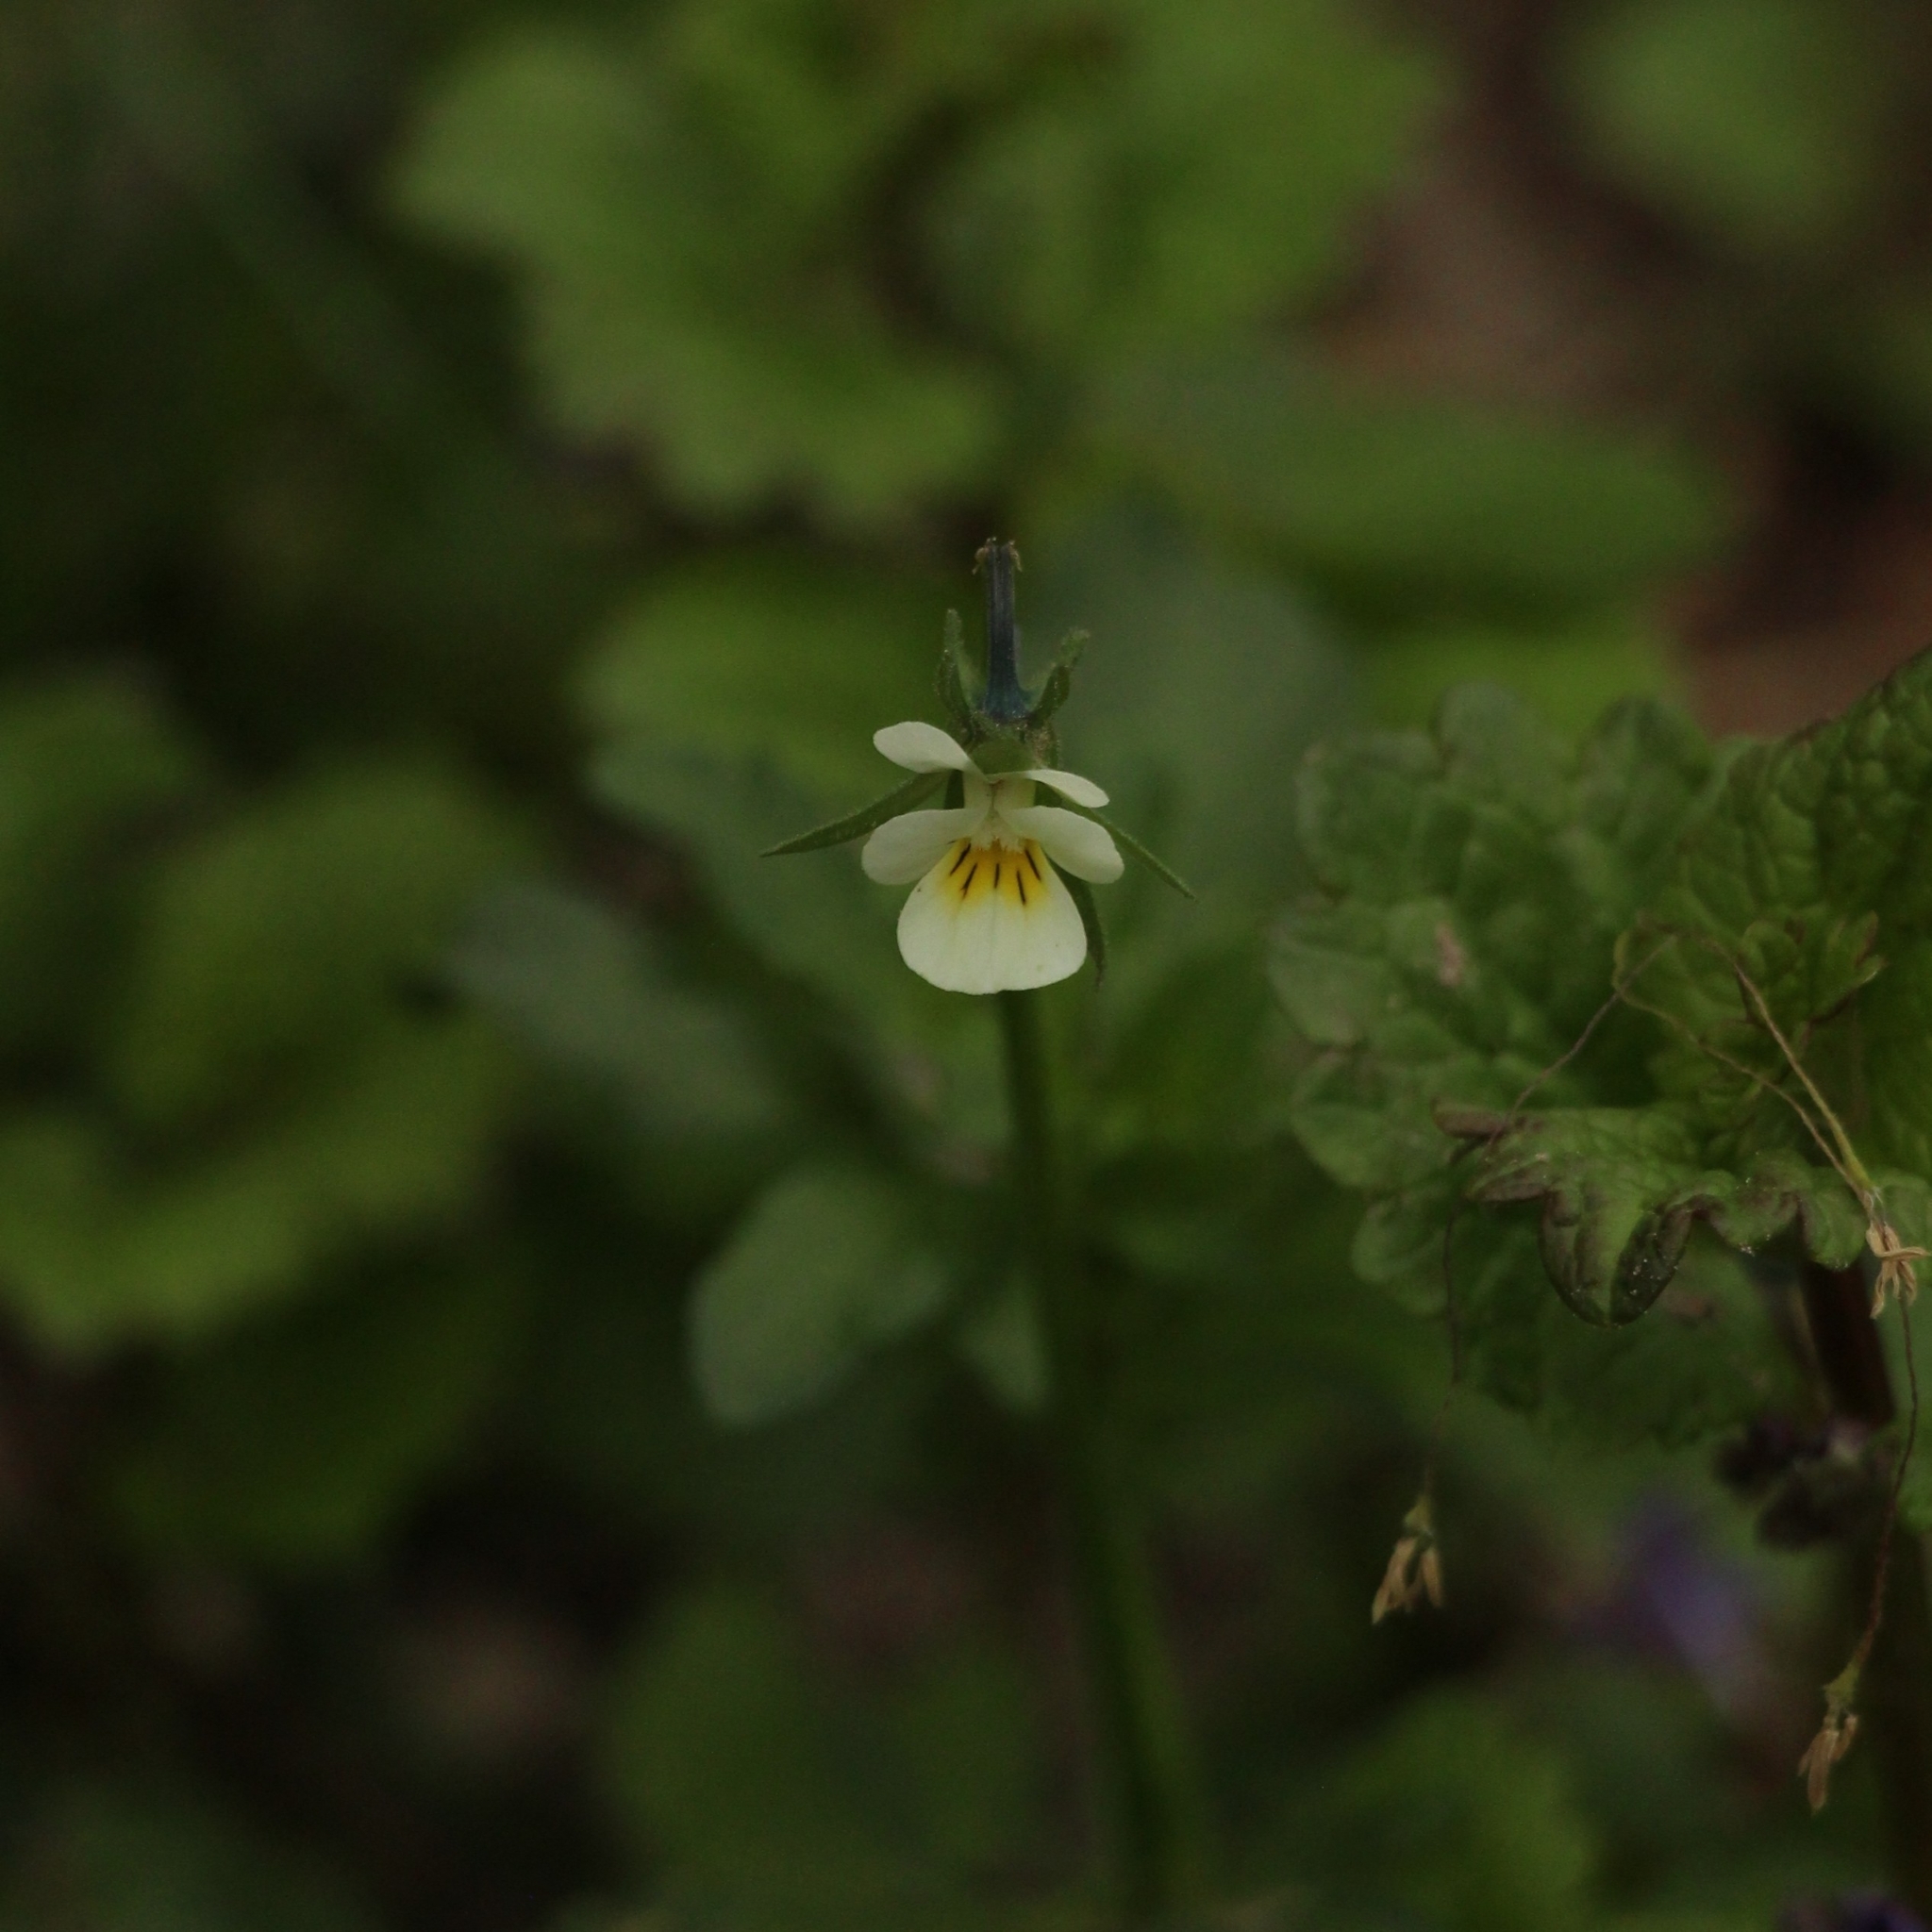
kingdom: Plantae
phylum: Tracheophyta
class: Magnoliopsida
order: Malpighiales
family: Violaceae
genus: Viola
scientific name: Viola arvensis
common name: Field pansy
